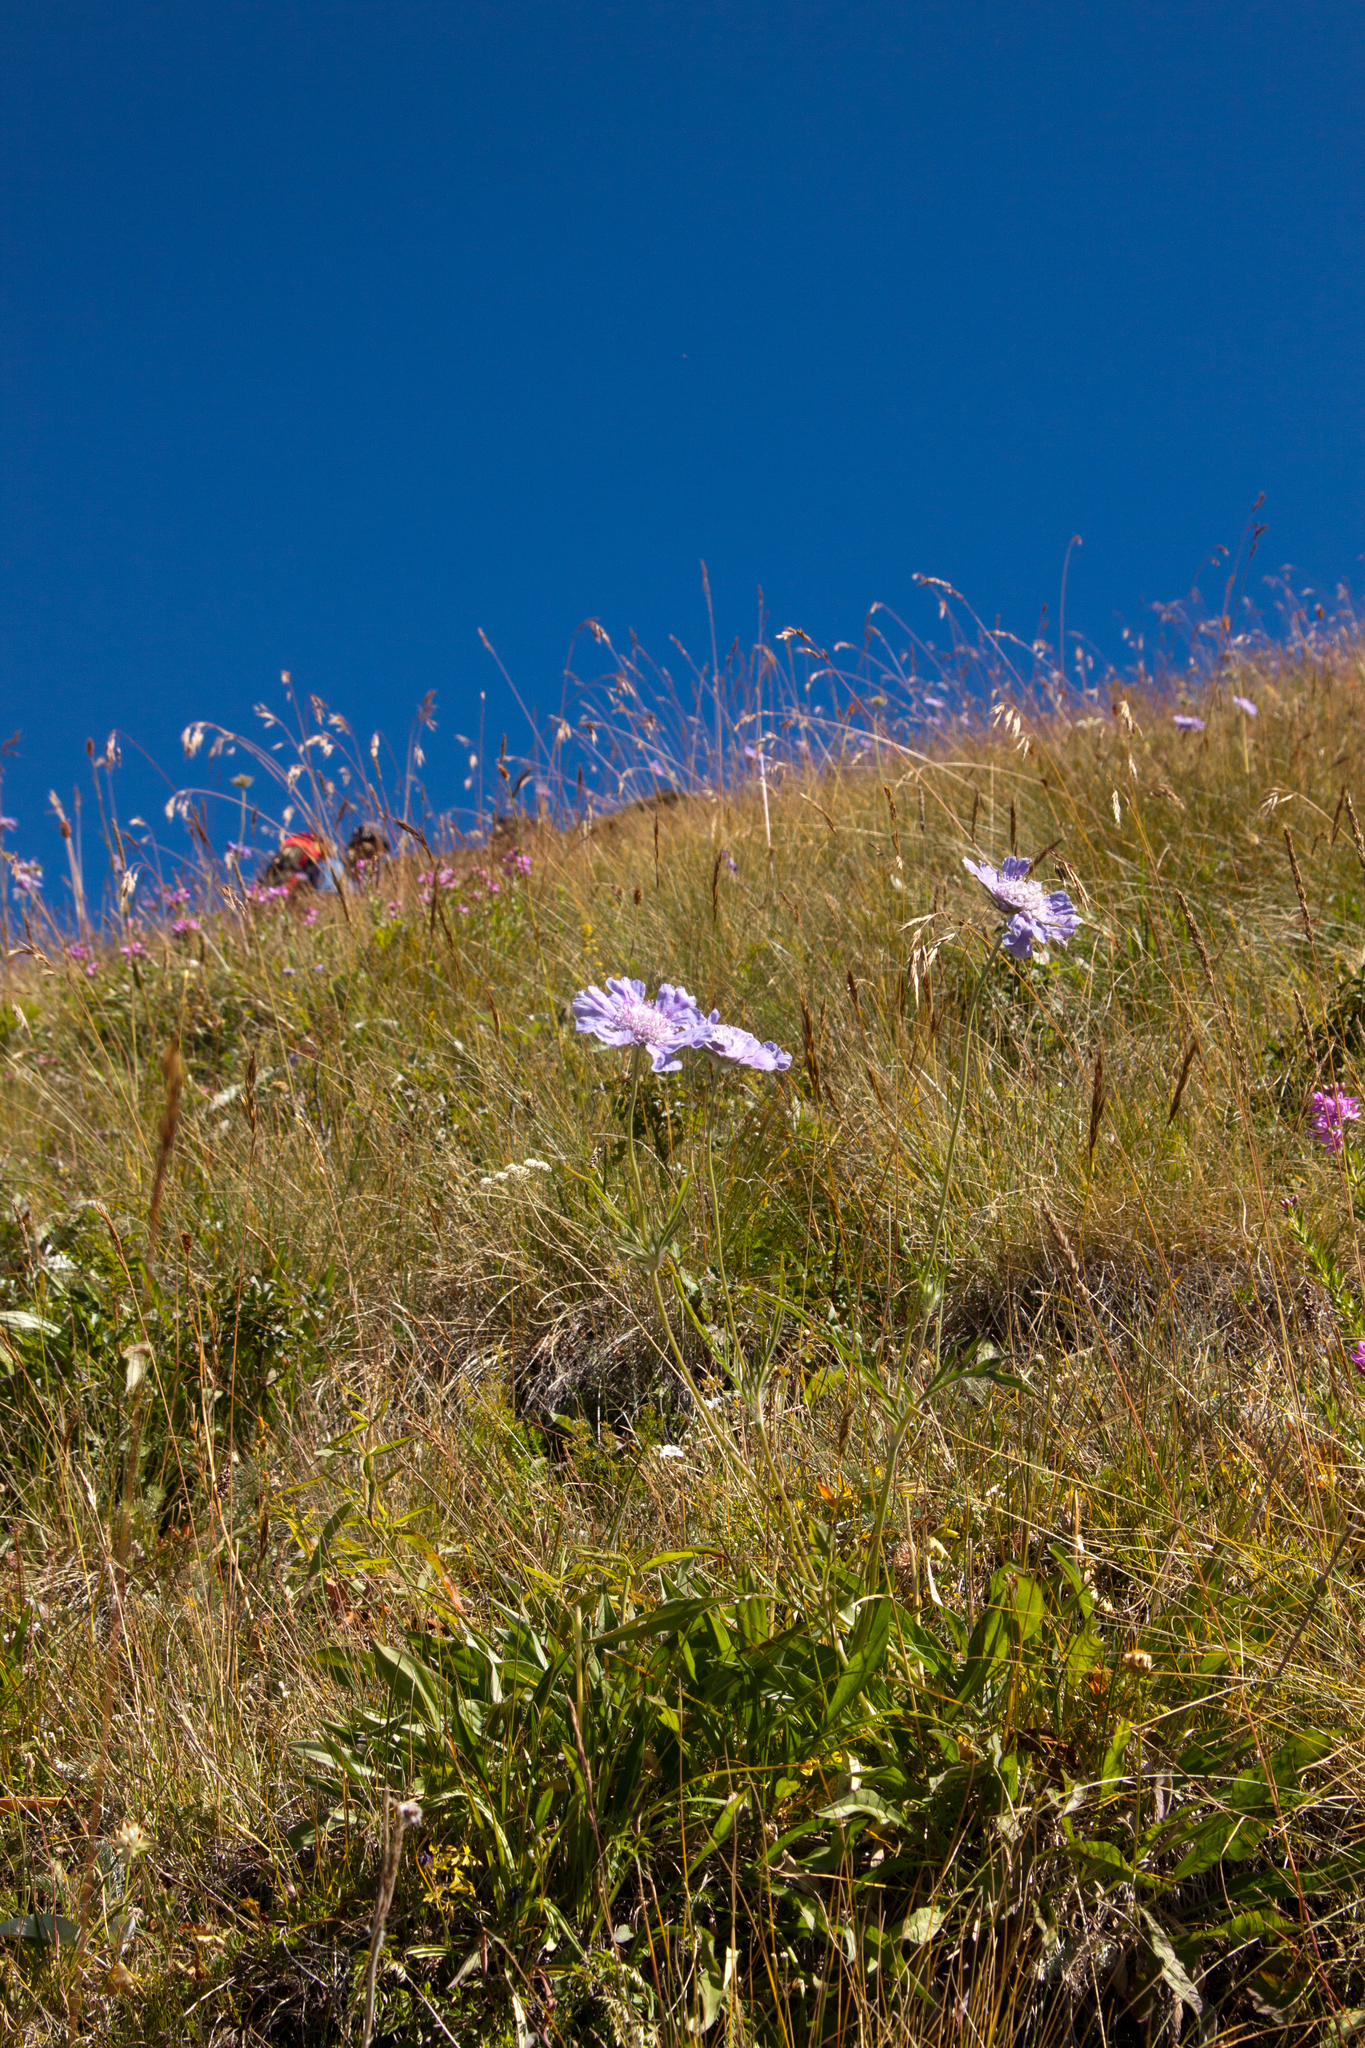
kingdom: Plantae
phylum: Tracheophyta
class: Magnoliopsida
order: Dipsacales
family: Caprifoliaceae
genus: Lomelosia
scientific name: Lomelosia caucasica
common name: Pincushion-flower
